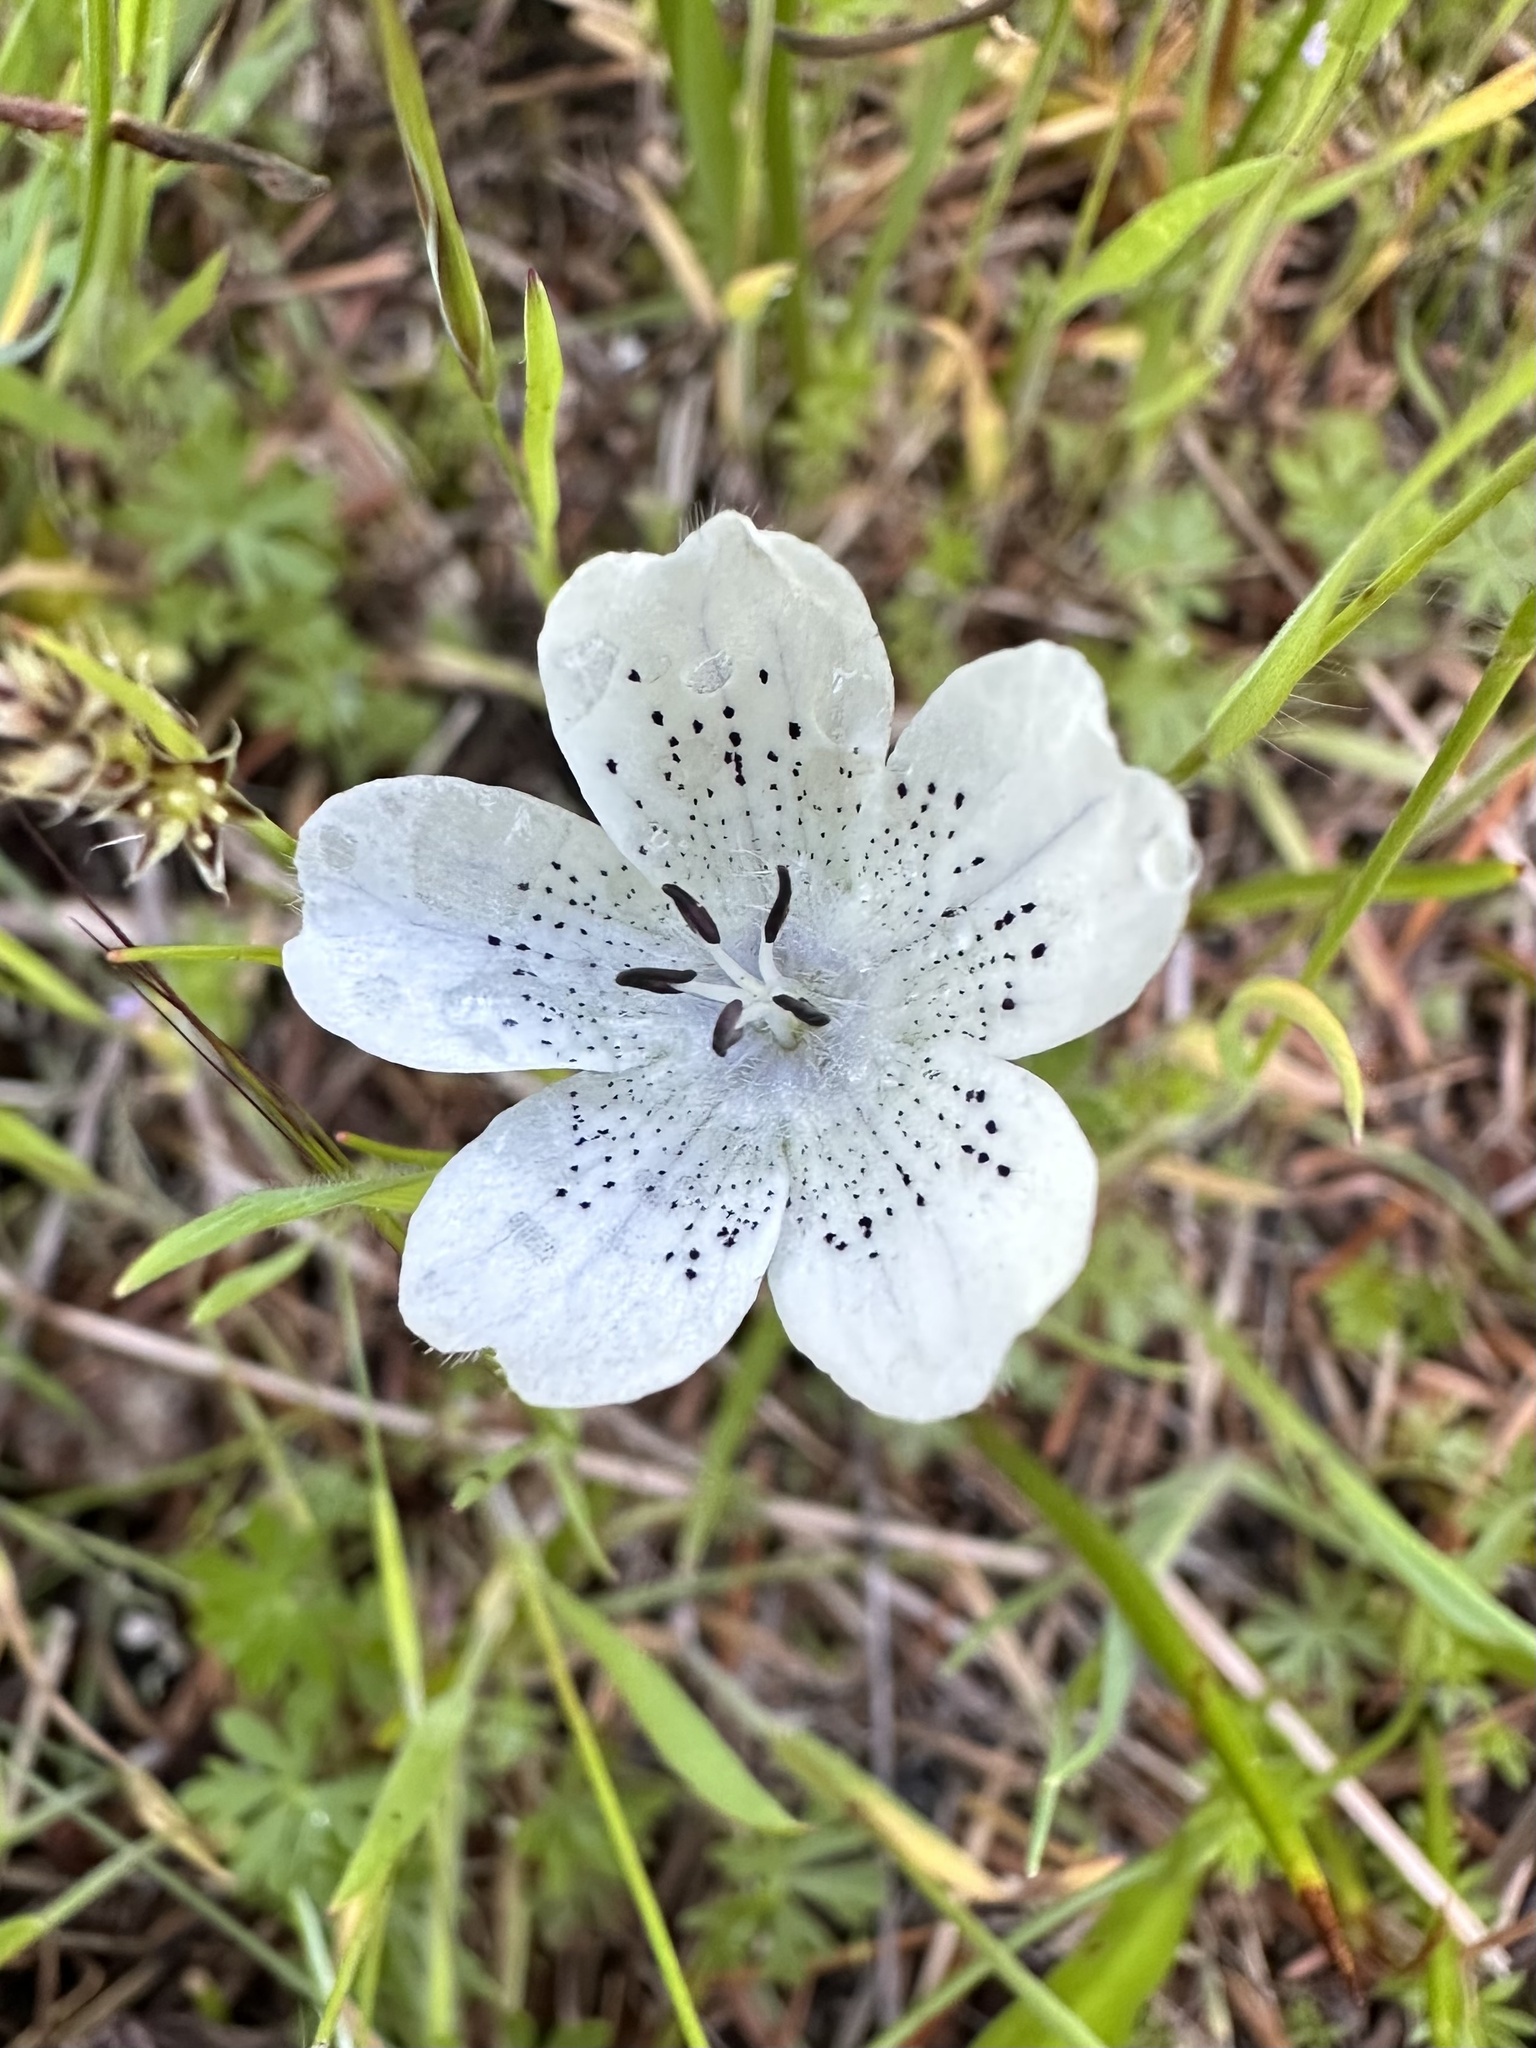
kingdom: Plantae
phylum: Tracheophyta
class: Magnoliopsida
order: Boraginales
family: Hydrophyllaceae
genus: Nemophila
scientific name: Nemophila menziesii
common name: Baby's-blue-eyes
